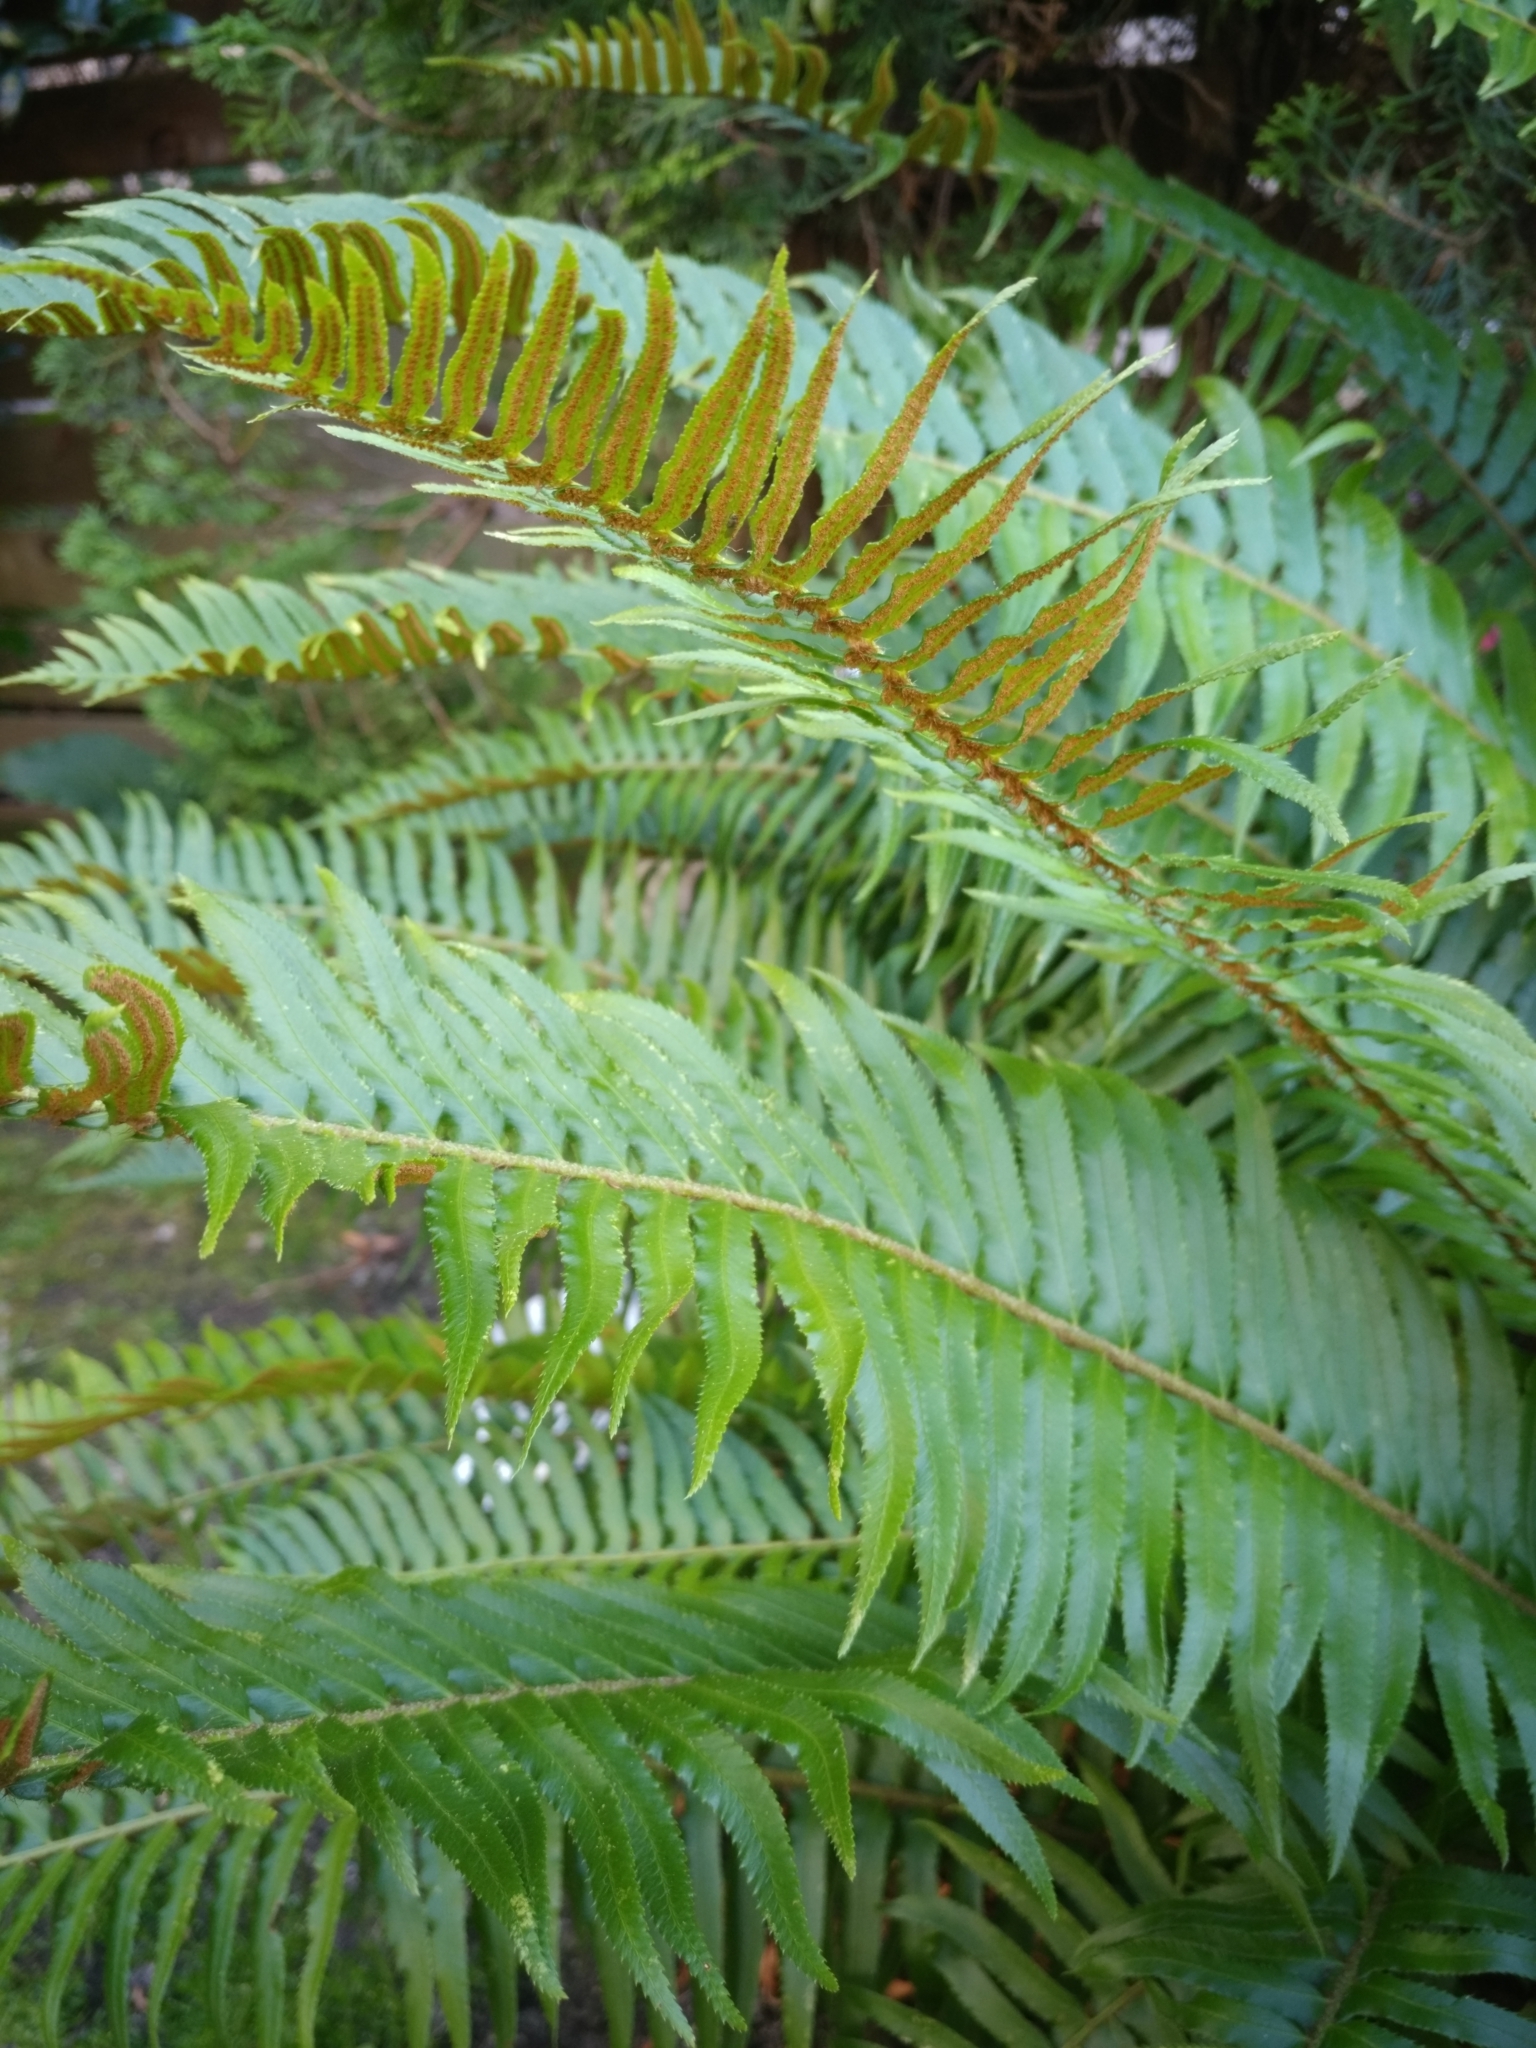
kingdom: Plantae
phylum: Tracheophyta
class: Polypodiopsida
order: Polypodiales
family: Dryopteridaceae
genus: Polystichum
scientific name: Polystichum munitum
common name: Western sword-fern
